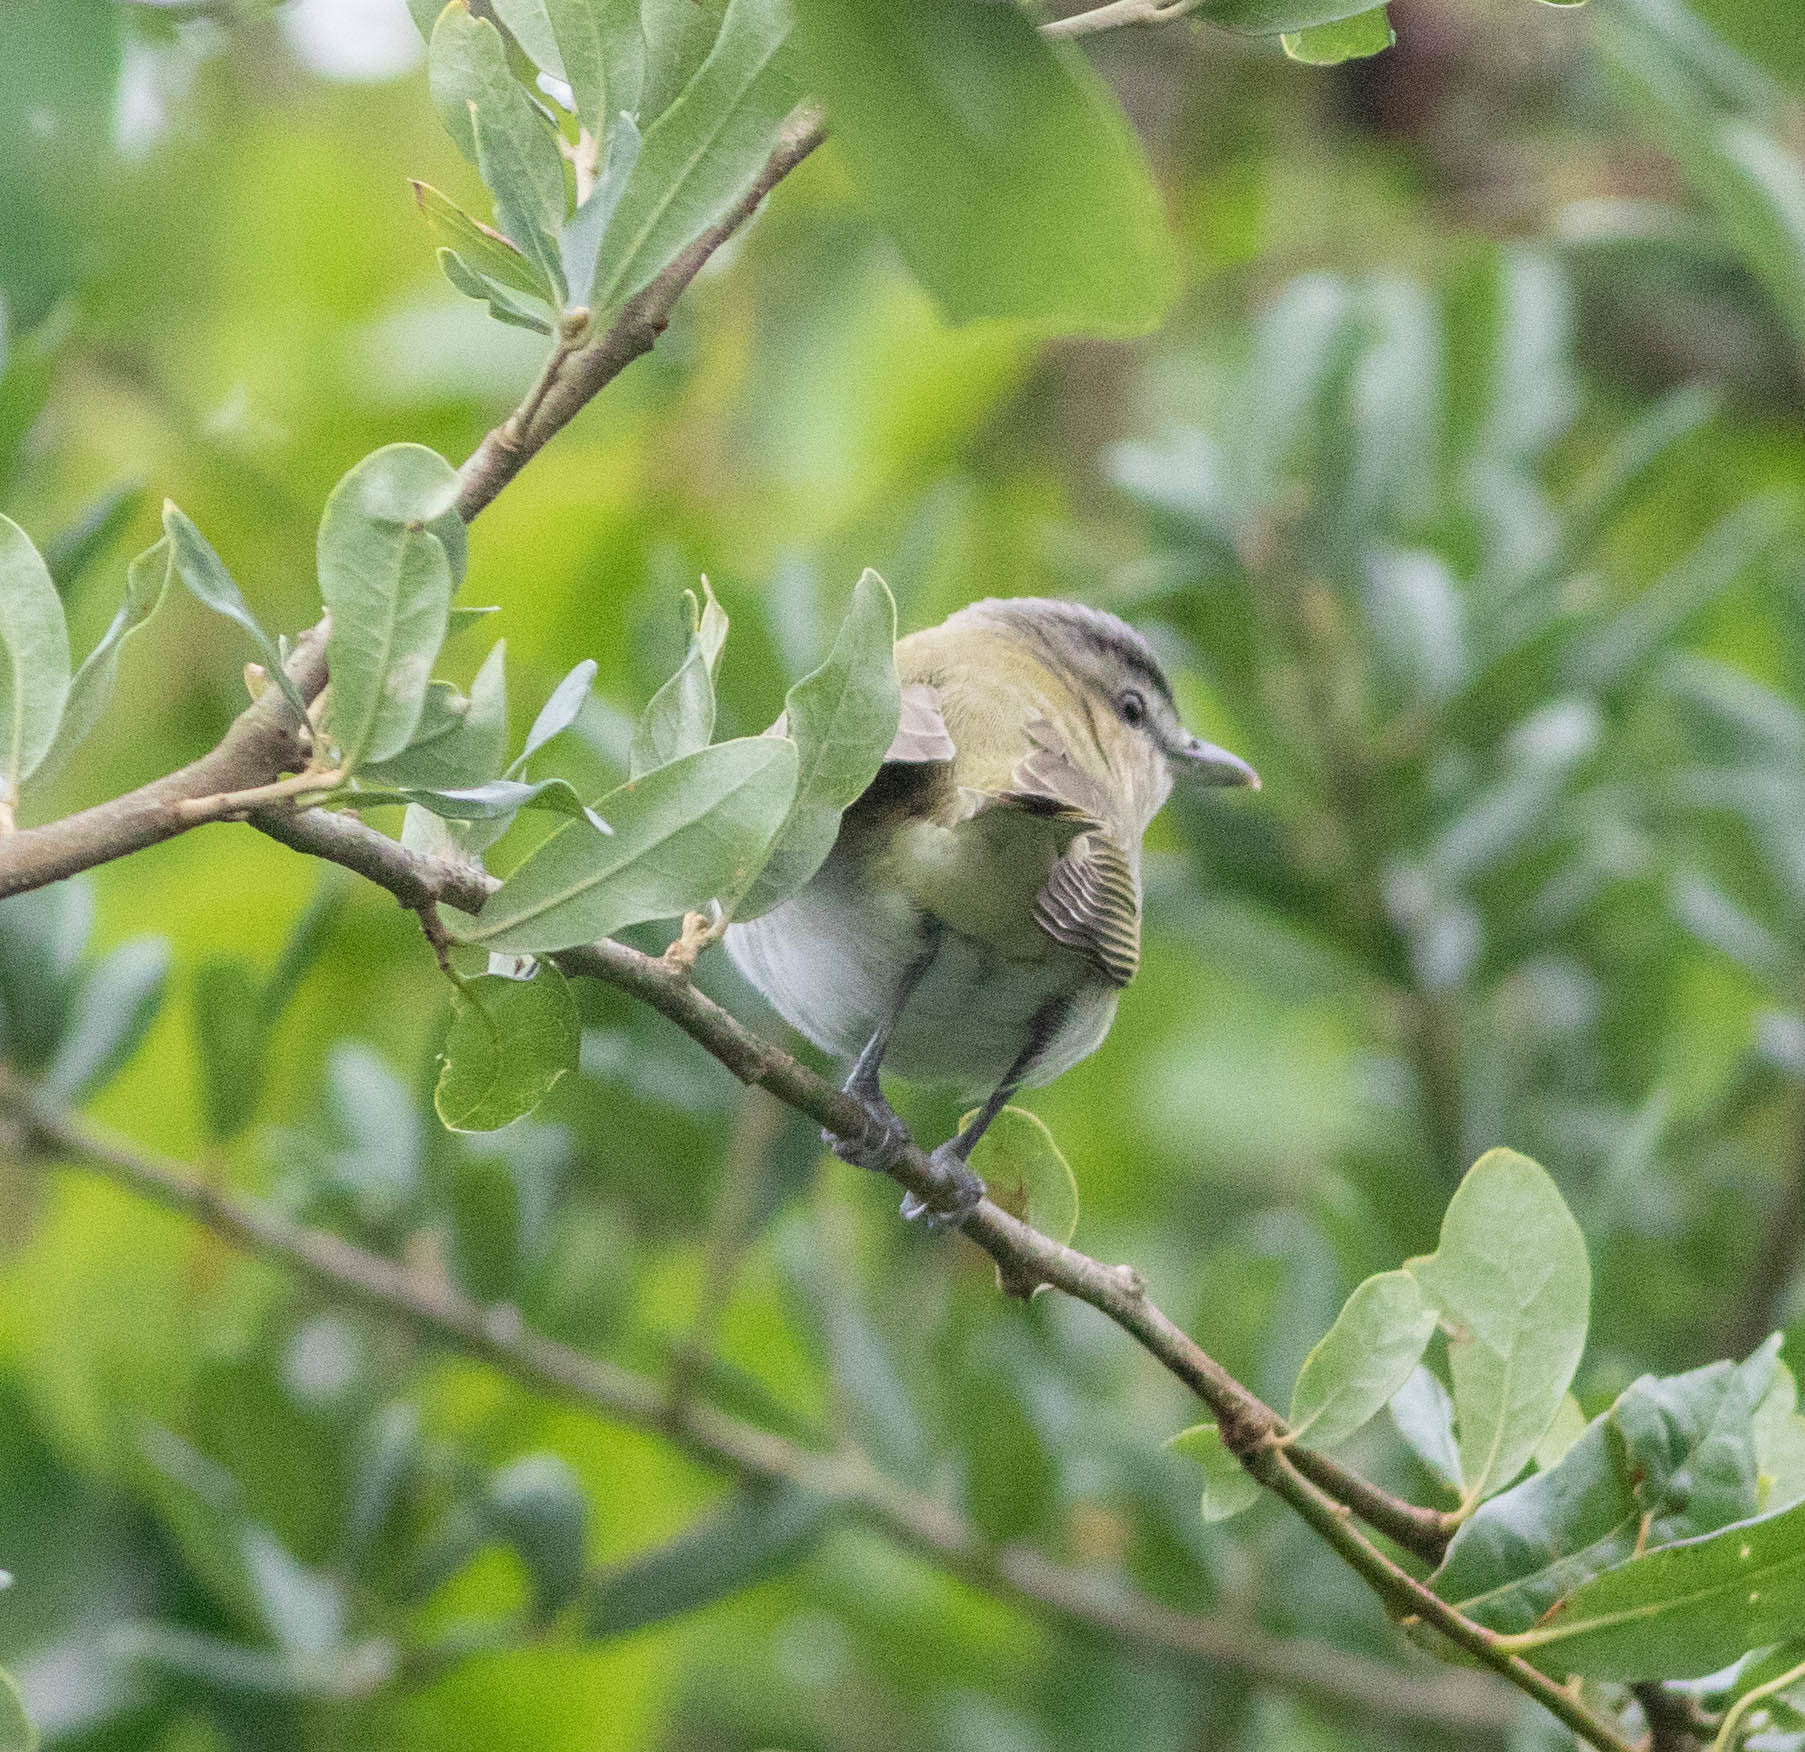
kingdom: Animalia
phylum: Chordata
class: Aves
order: Passeriformes
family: Vireonidae
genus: Vireo
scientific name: Vireo olivaceus
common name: Red-eyed vireo
